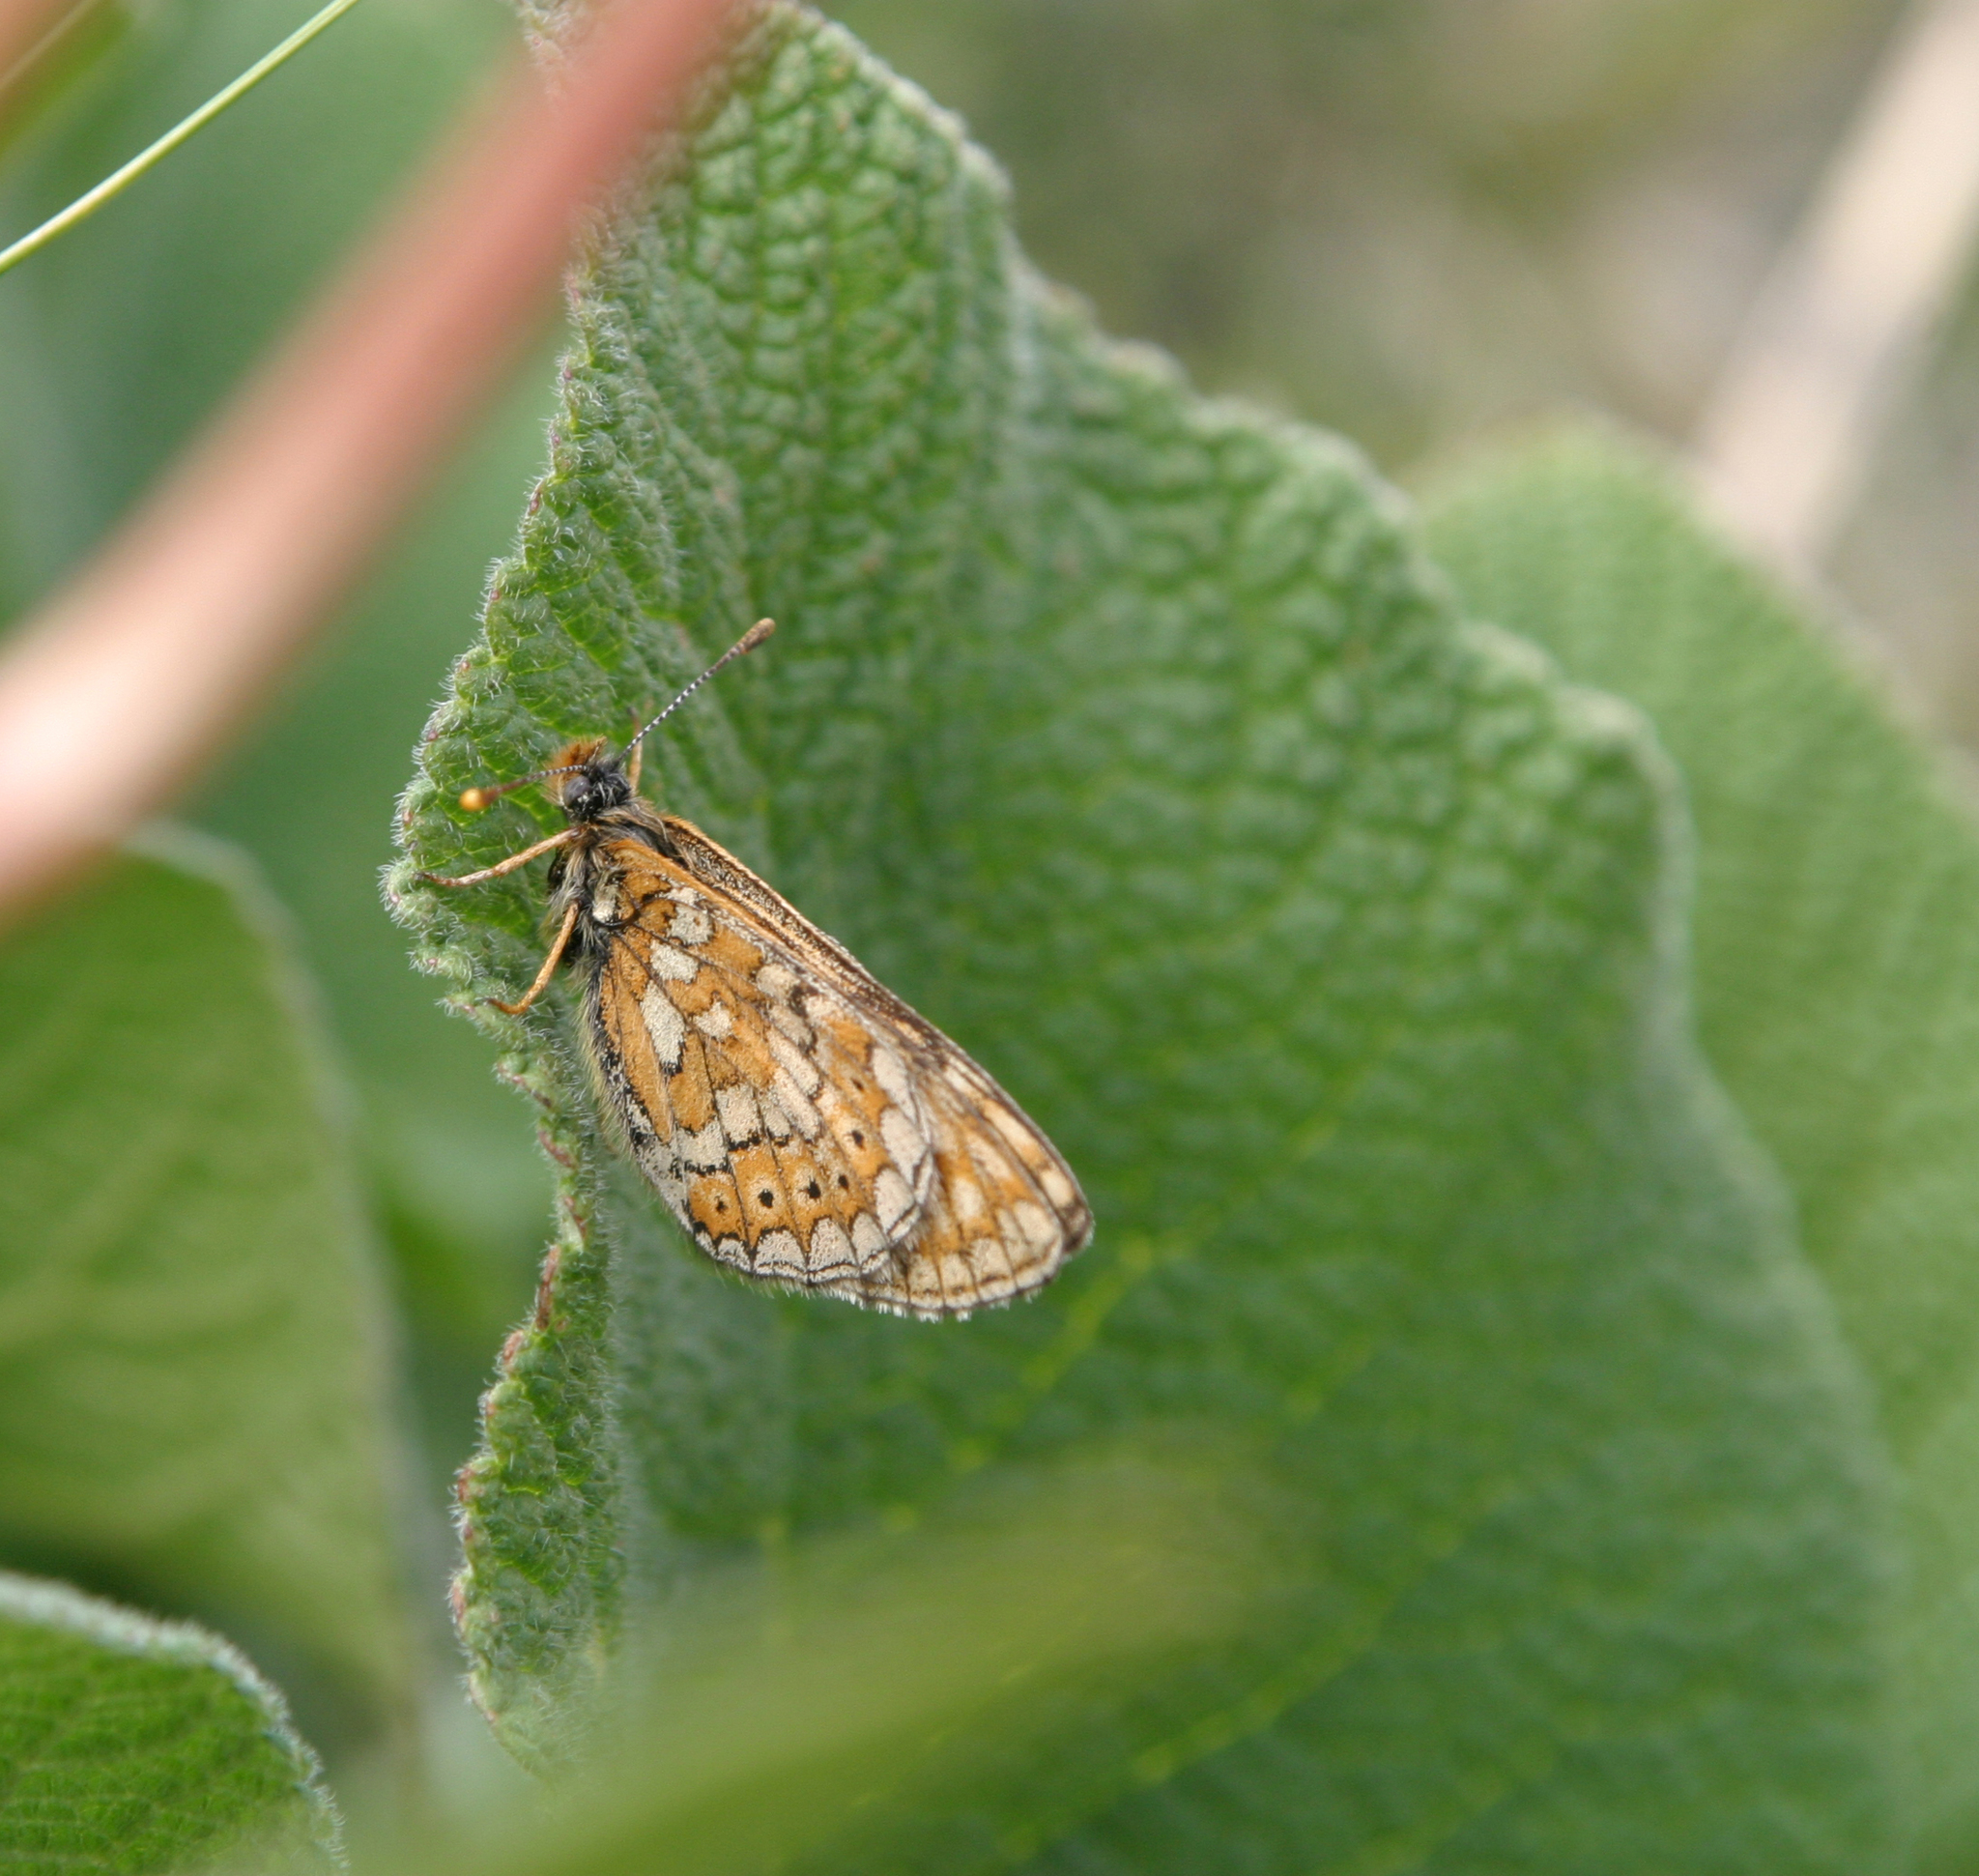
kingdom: Animalia
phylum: Arthropoda
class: Insecta
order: Lepidoptera
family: Nymphalidae
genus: Euphydryas
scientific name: Euphydryas asiatica
